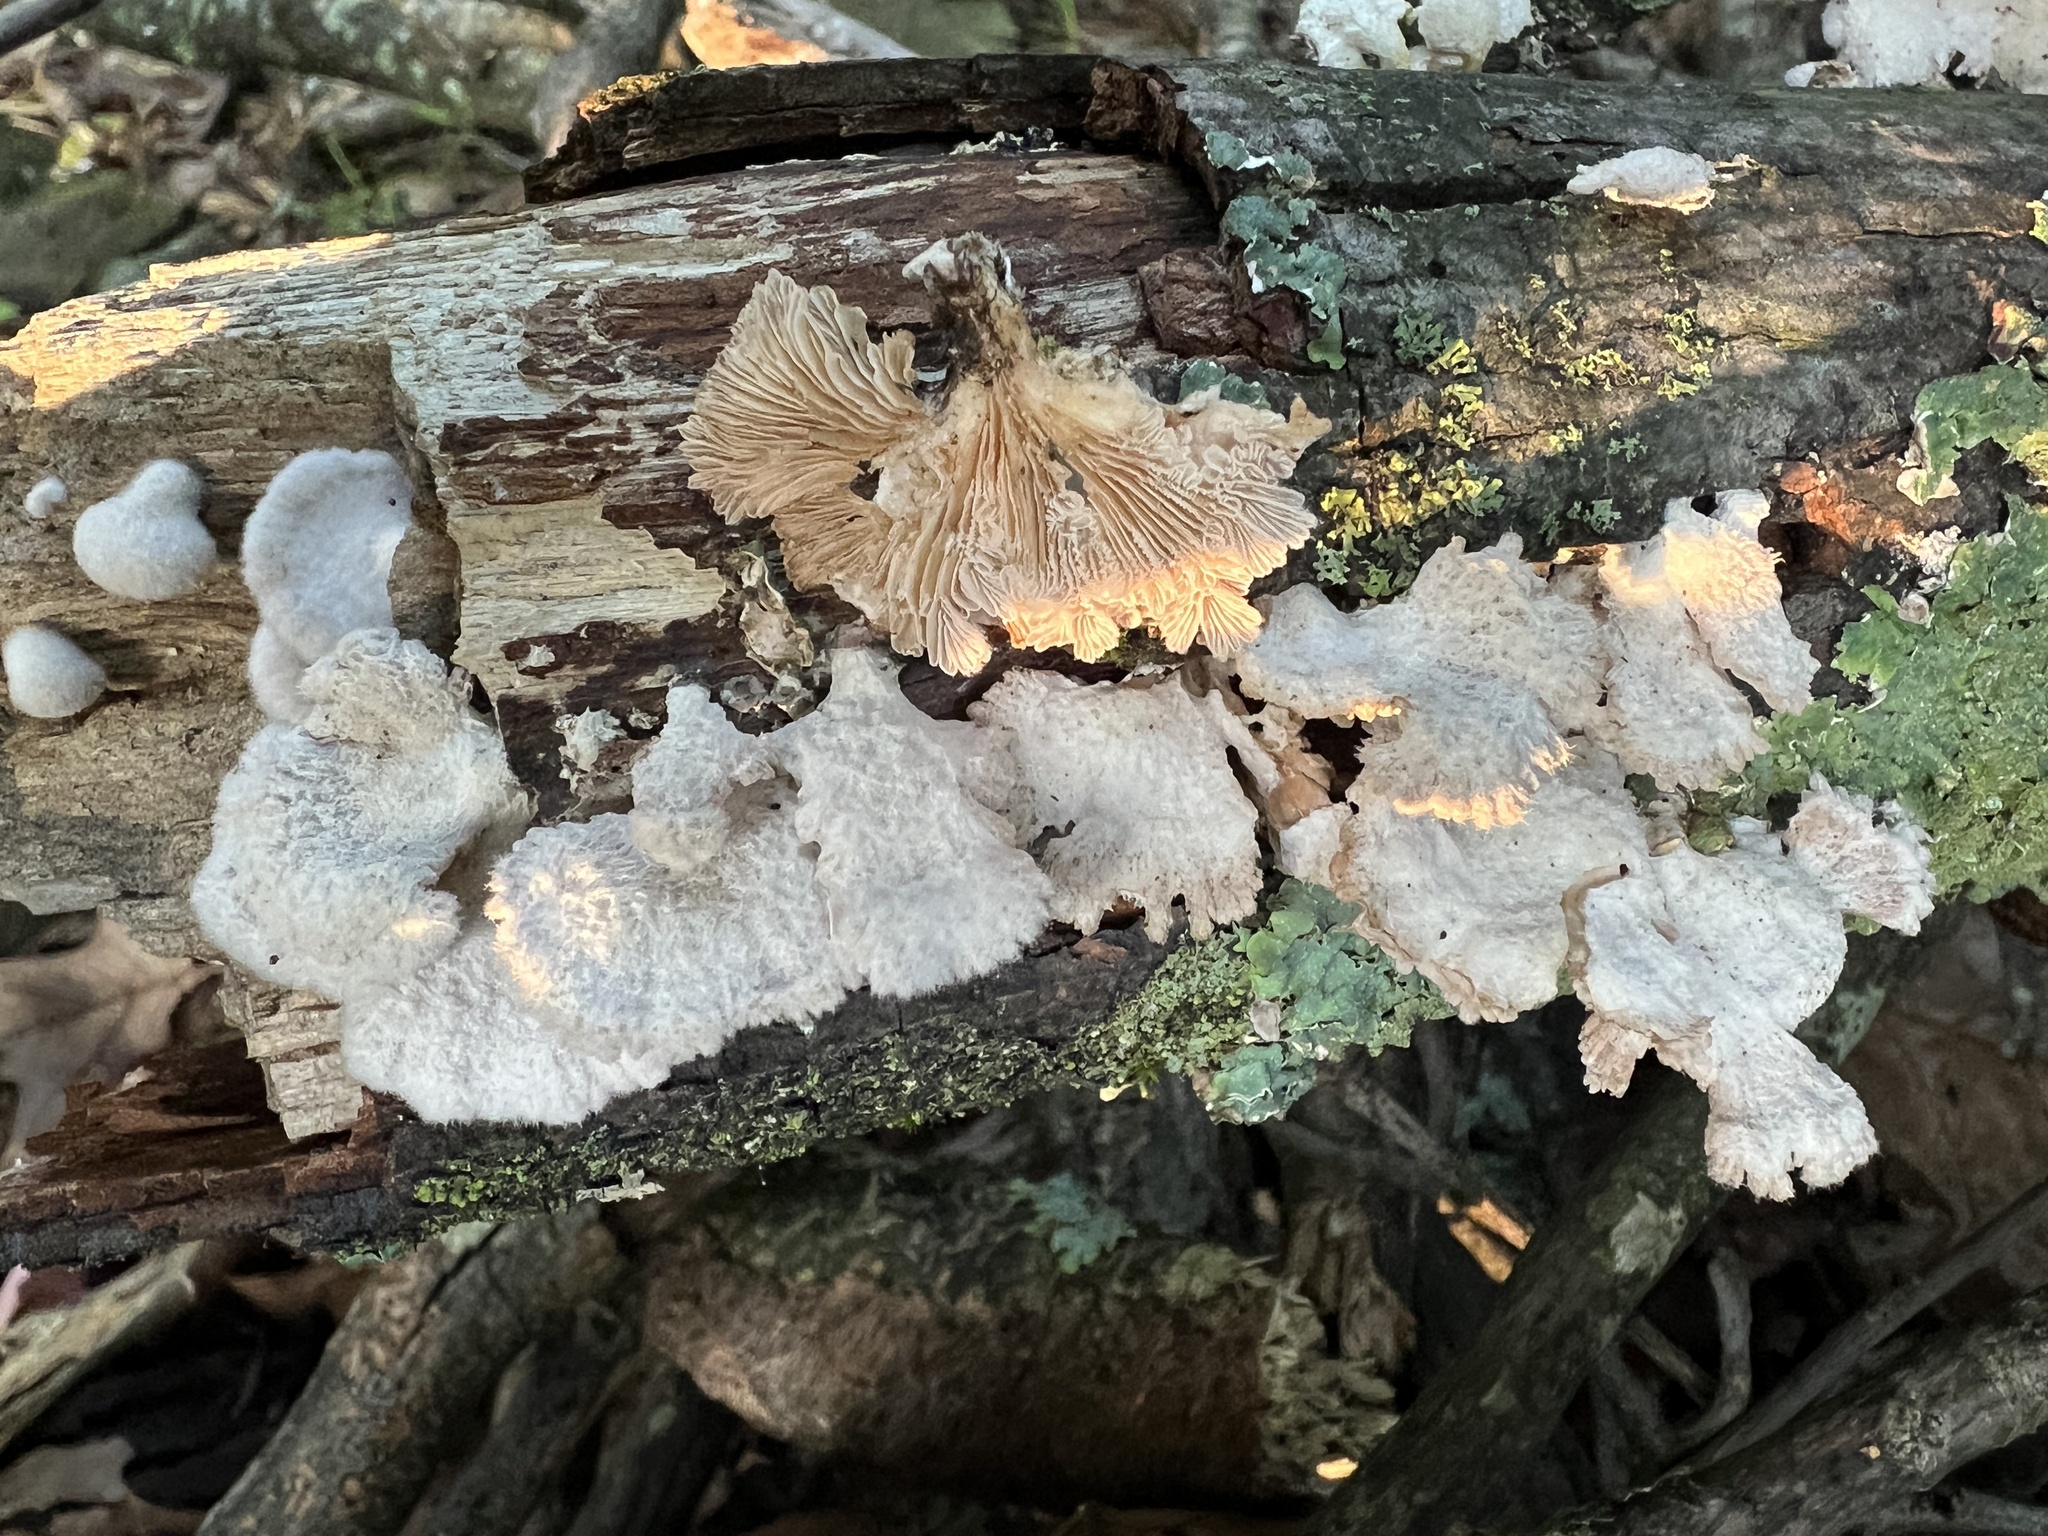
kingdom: Fungi
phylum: Basidiomycota
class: Agaricomycetes
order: Agaricales
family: Schizophyllaceae
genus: Schizophyllum
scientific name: Schizophyllum commune
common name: Common porecrust
